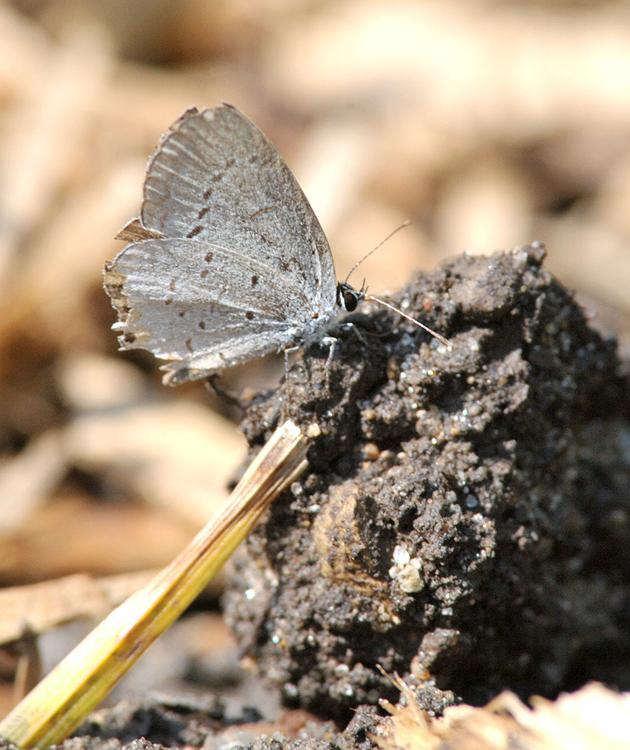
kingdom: Animalia
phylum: Arthropoda
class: Insecta
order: Lepidoptera
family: Lycaenidae
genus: Elkalyce
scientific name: Elkalyce comyntas
